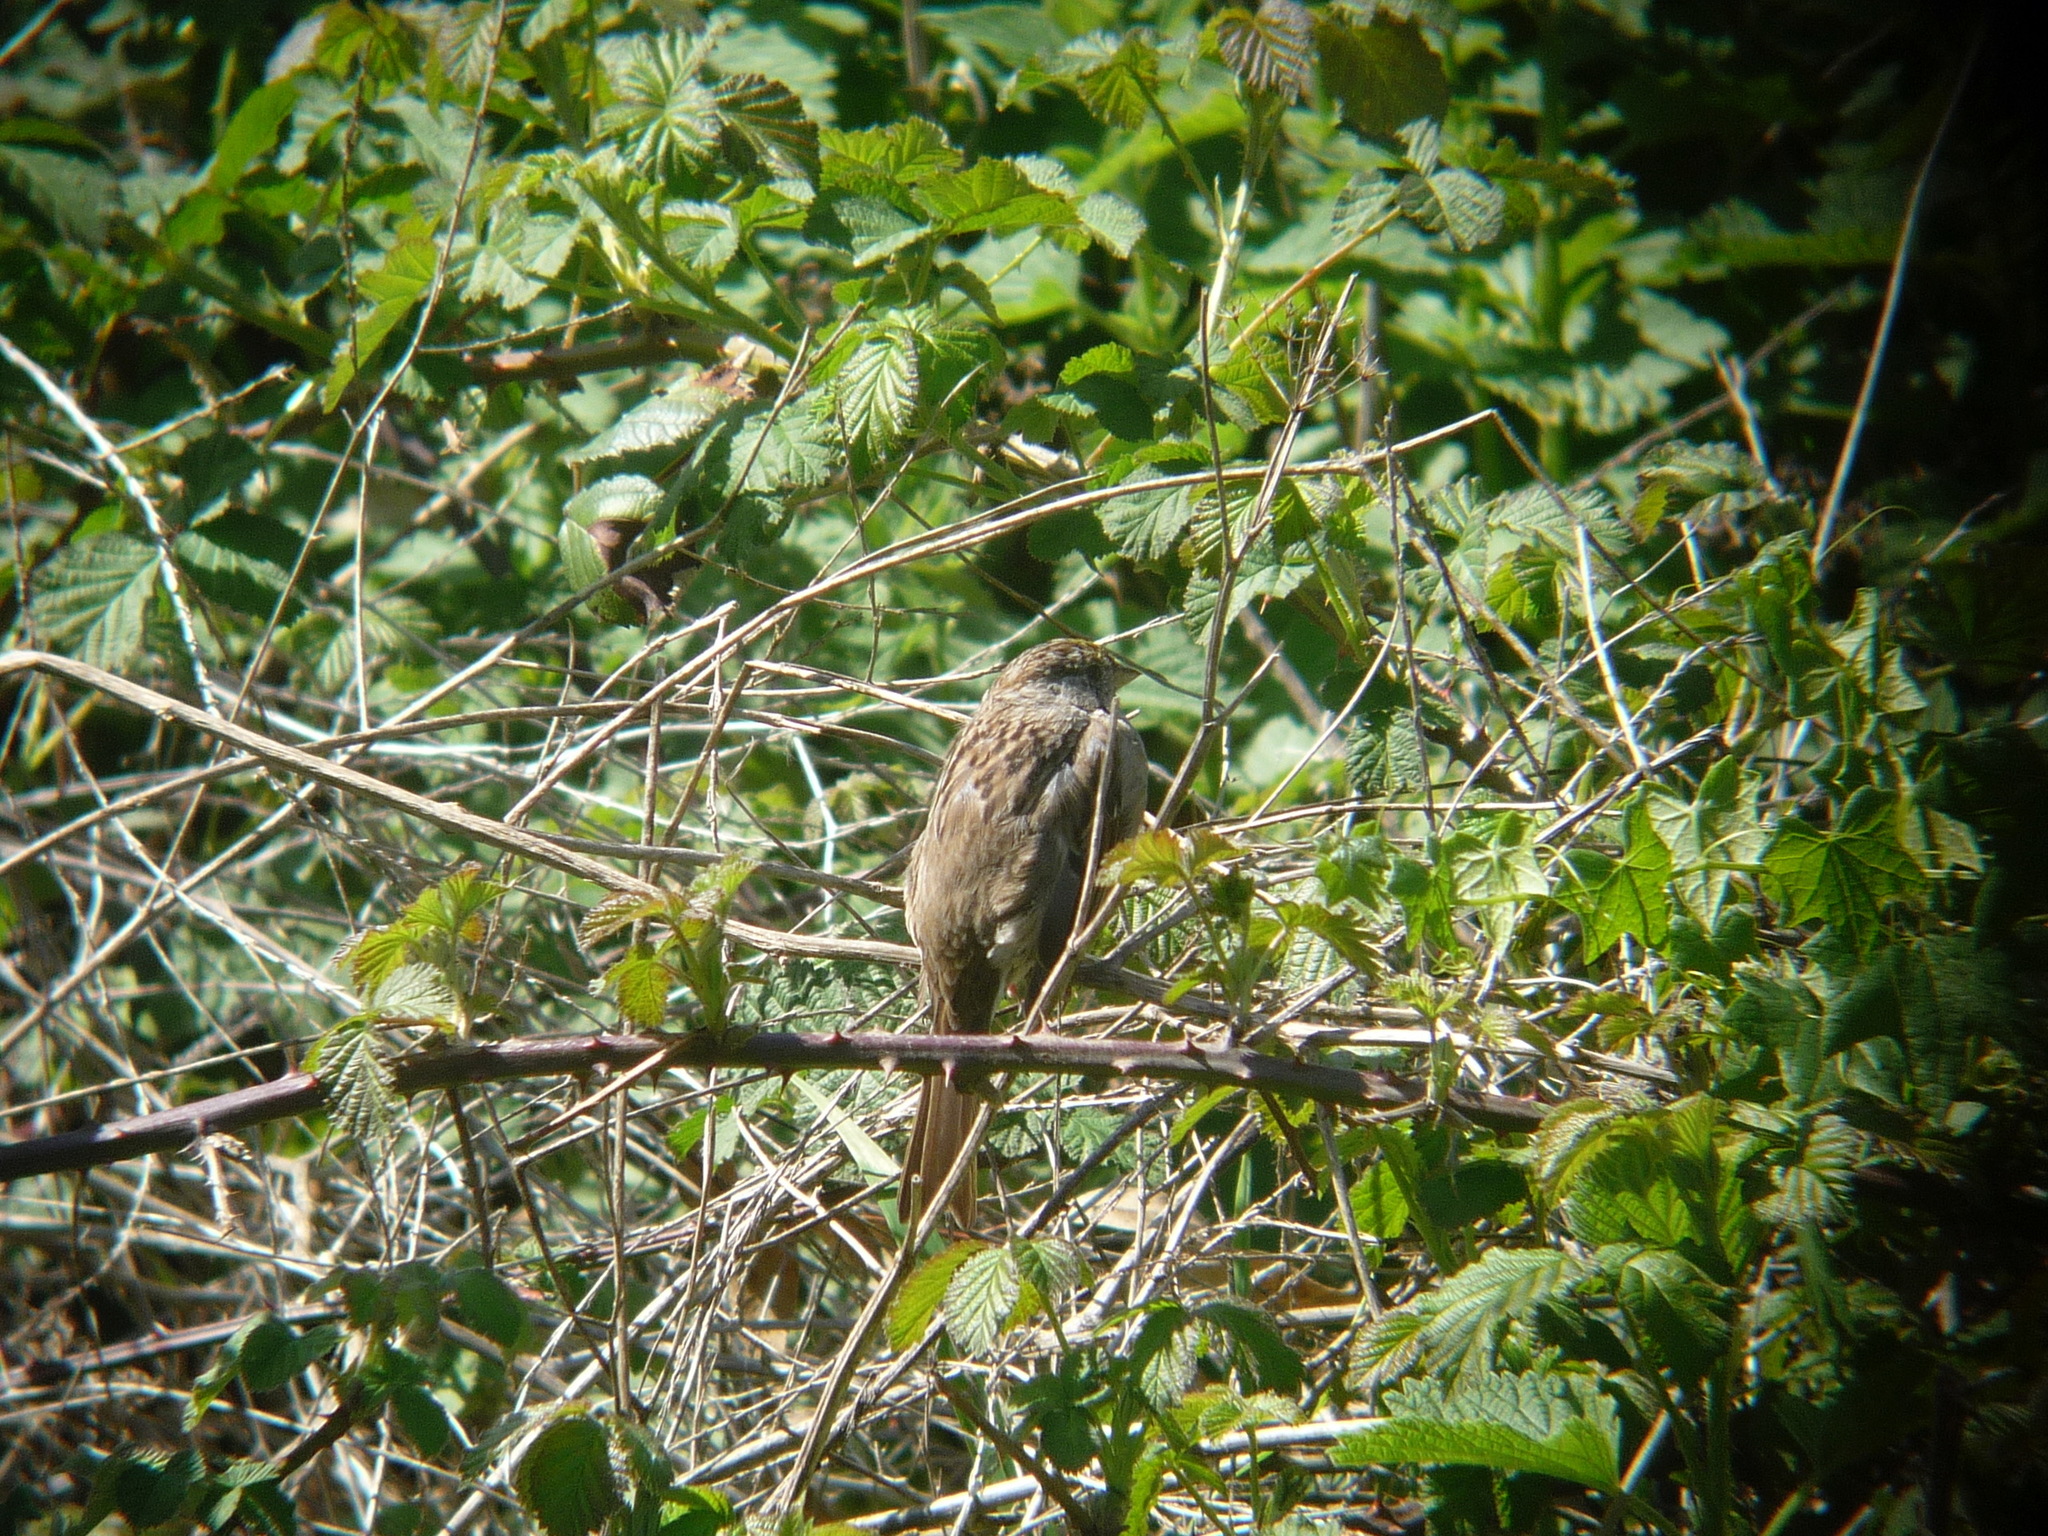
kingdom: Animalia
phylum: Chordata
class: Aves
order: Passeriformes
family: Passerellidae
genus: Zonotrichia
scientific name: Zonotrichia atricapilla
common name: Golden-crowned sparrow
